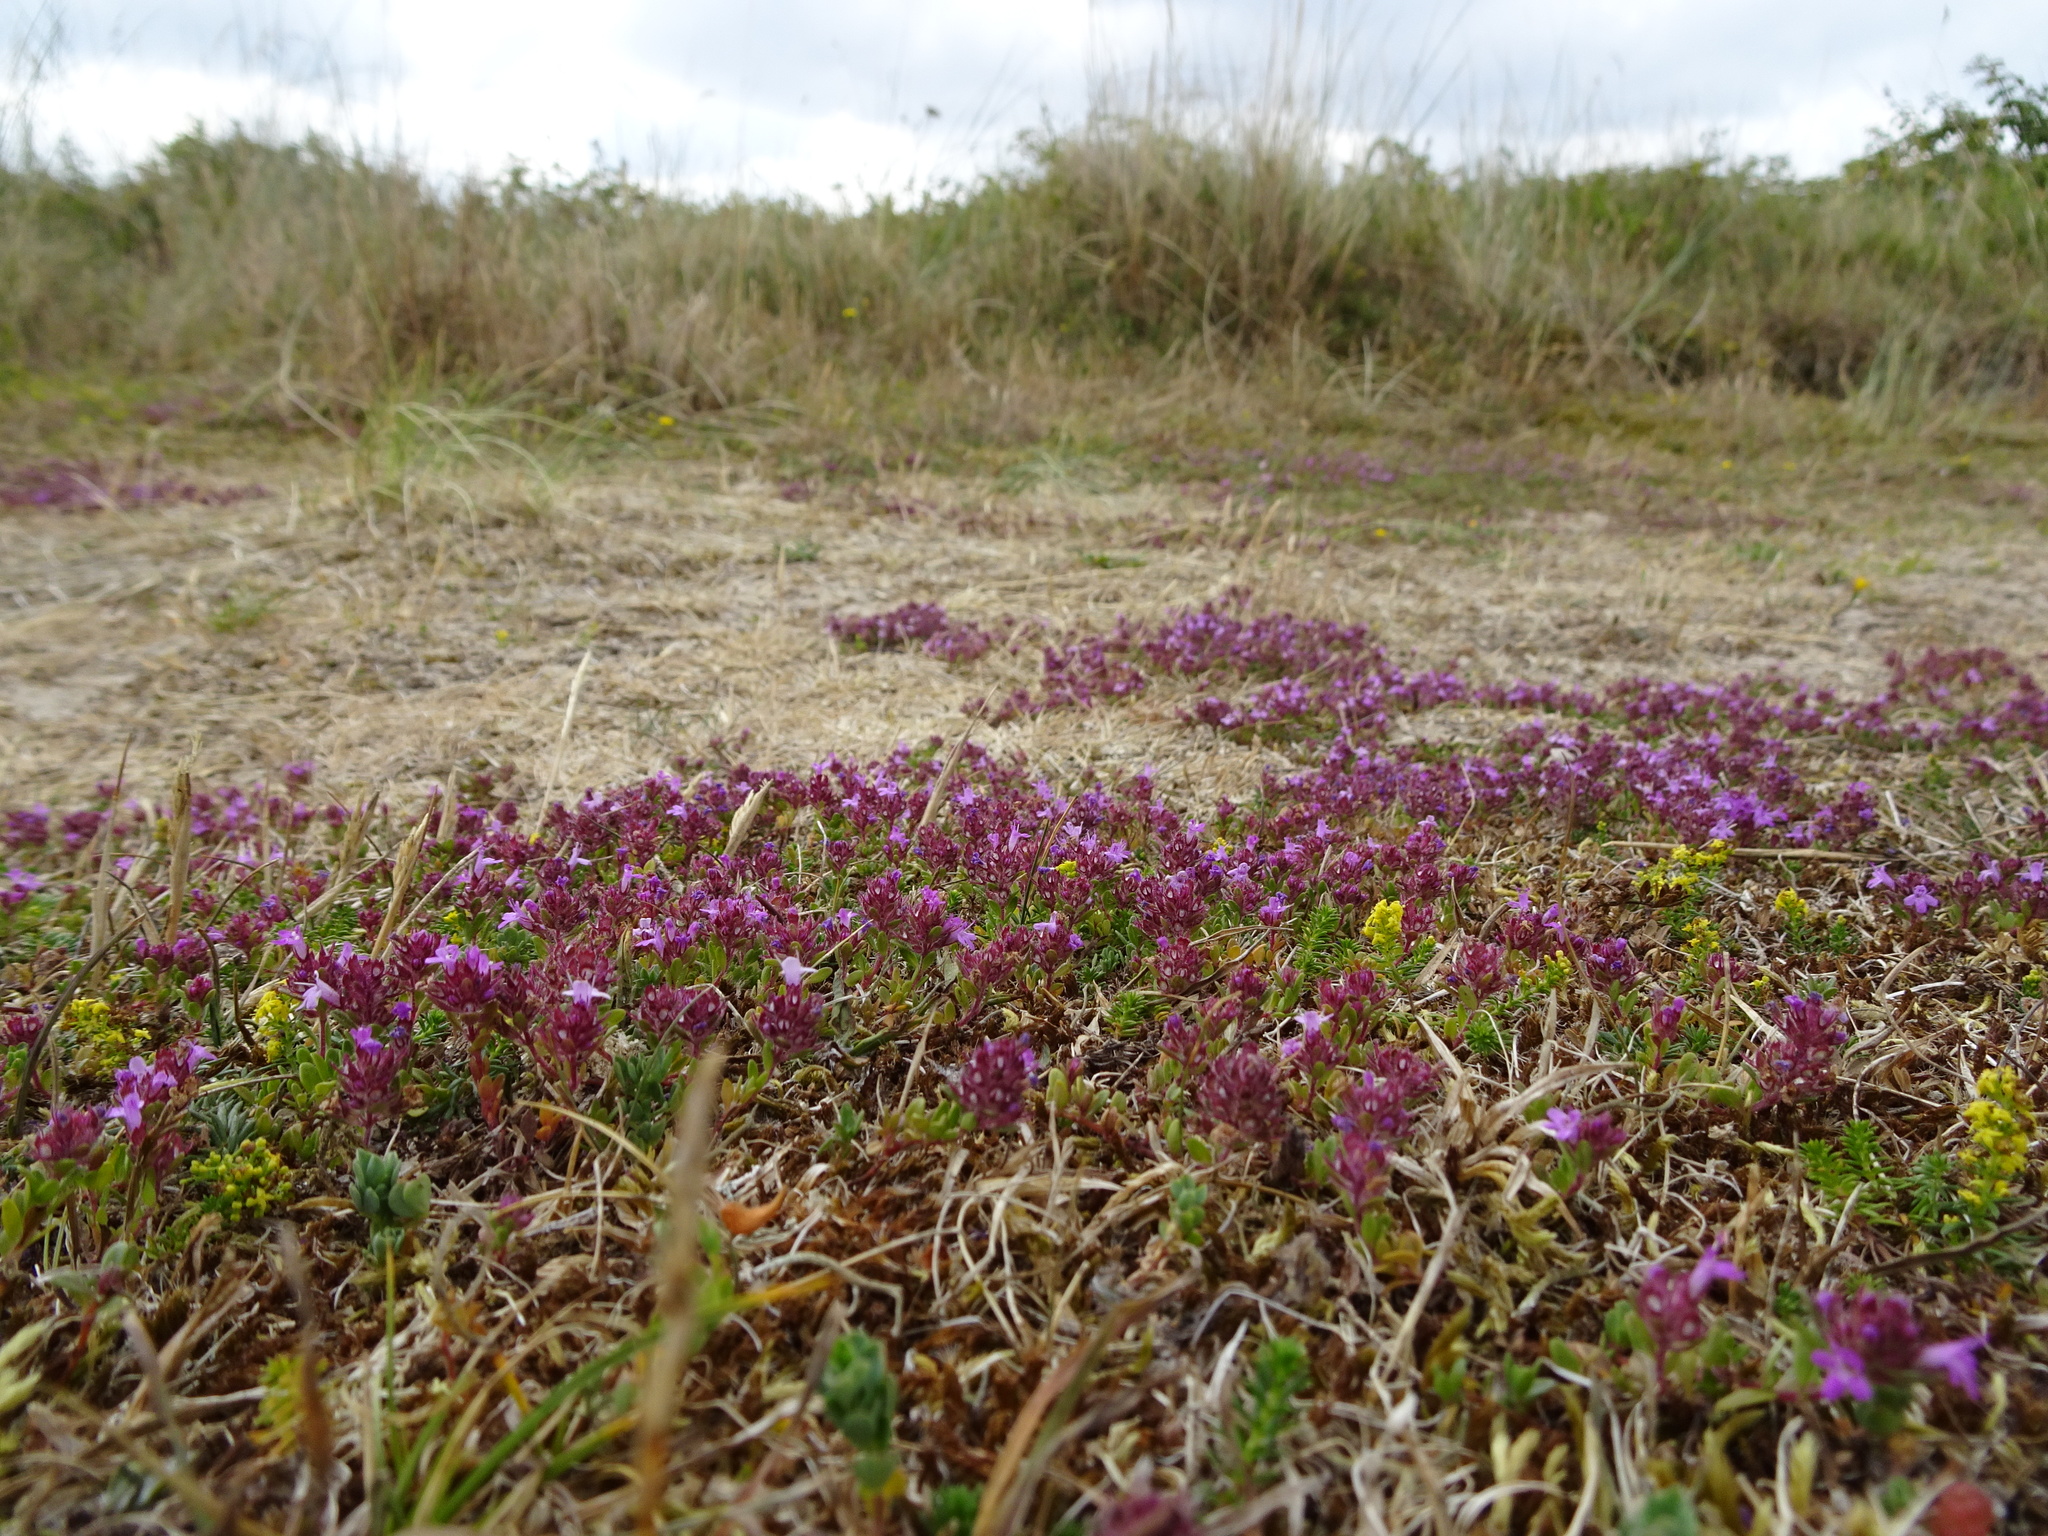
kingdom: Plantae
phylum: Tracheophyta
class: Magnoliopsida
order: Lamiales
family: Lamiaceae
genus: Thymus
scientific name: Thymus praecox
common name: Wild thyme
